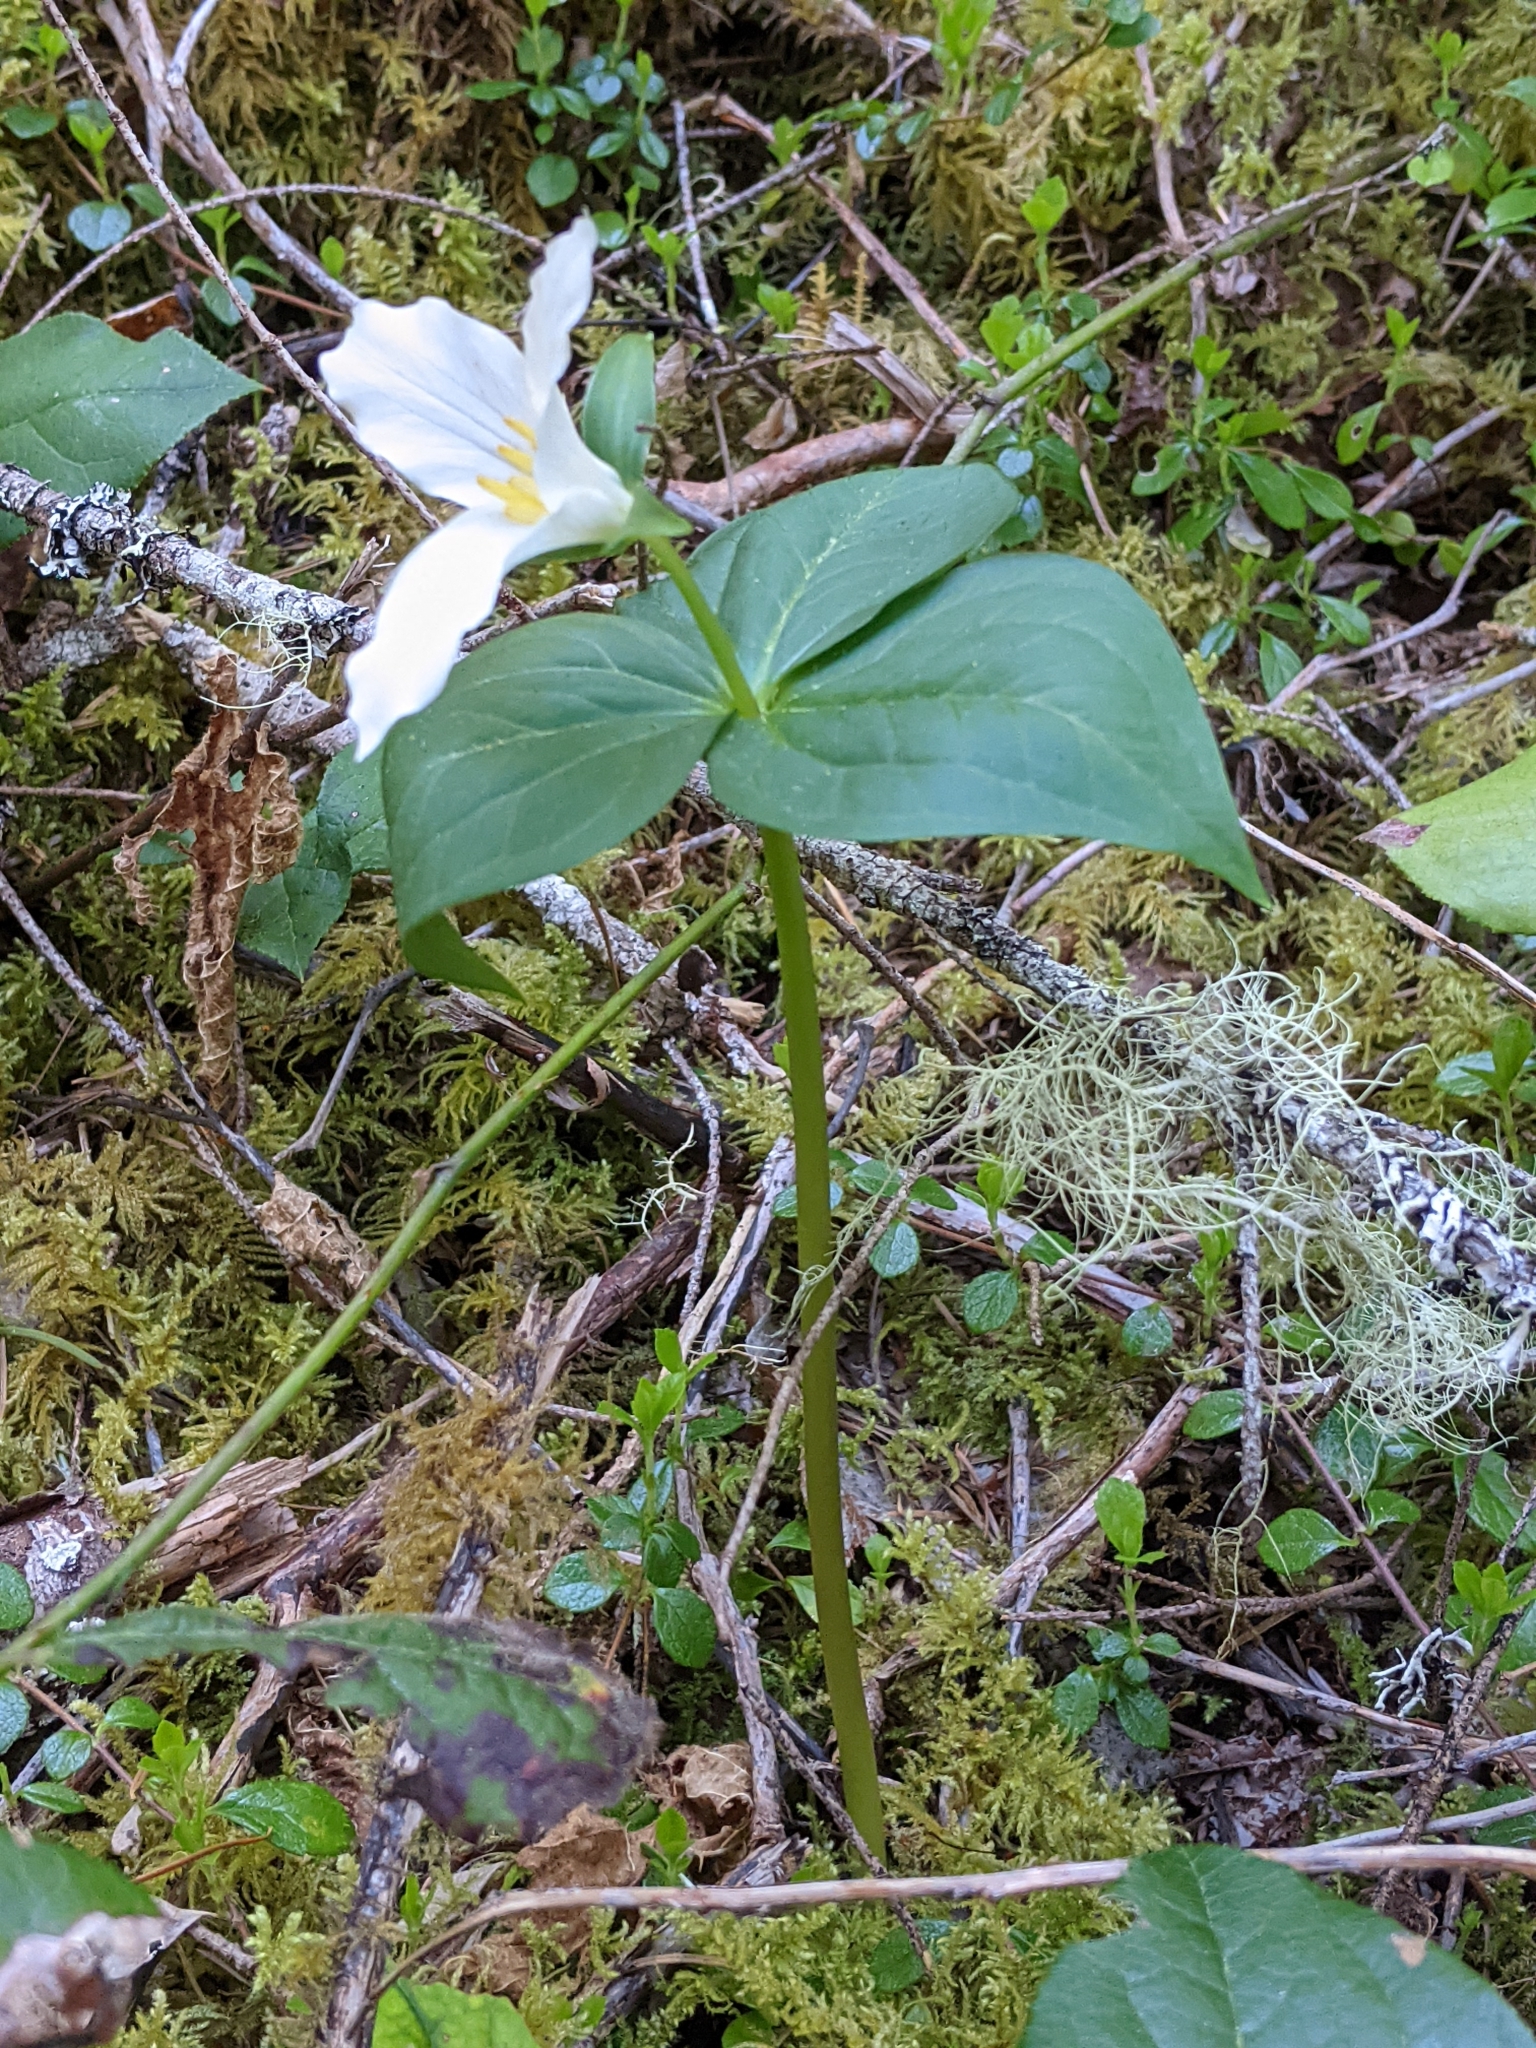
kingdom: Plantae
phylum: Tracheophyta
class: Liliopsida
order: Liliales
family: Melanthiaceae
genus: Trillium
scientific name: Trillium ovatum
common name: Pacific trillium
